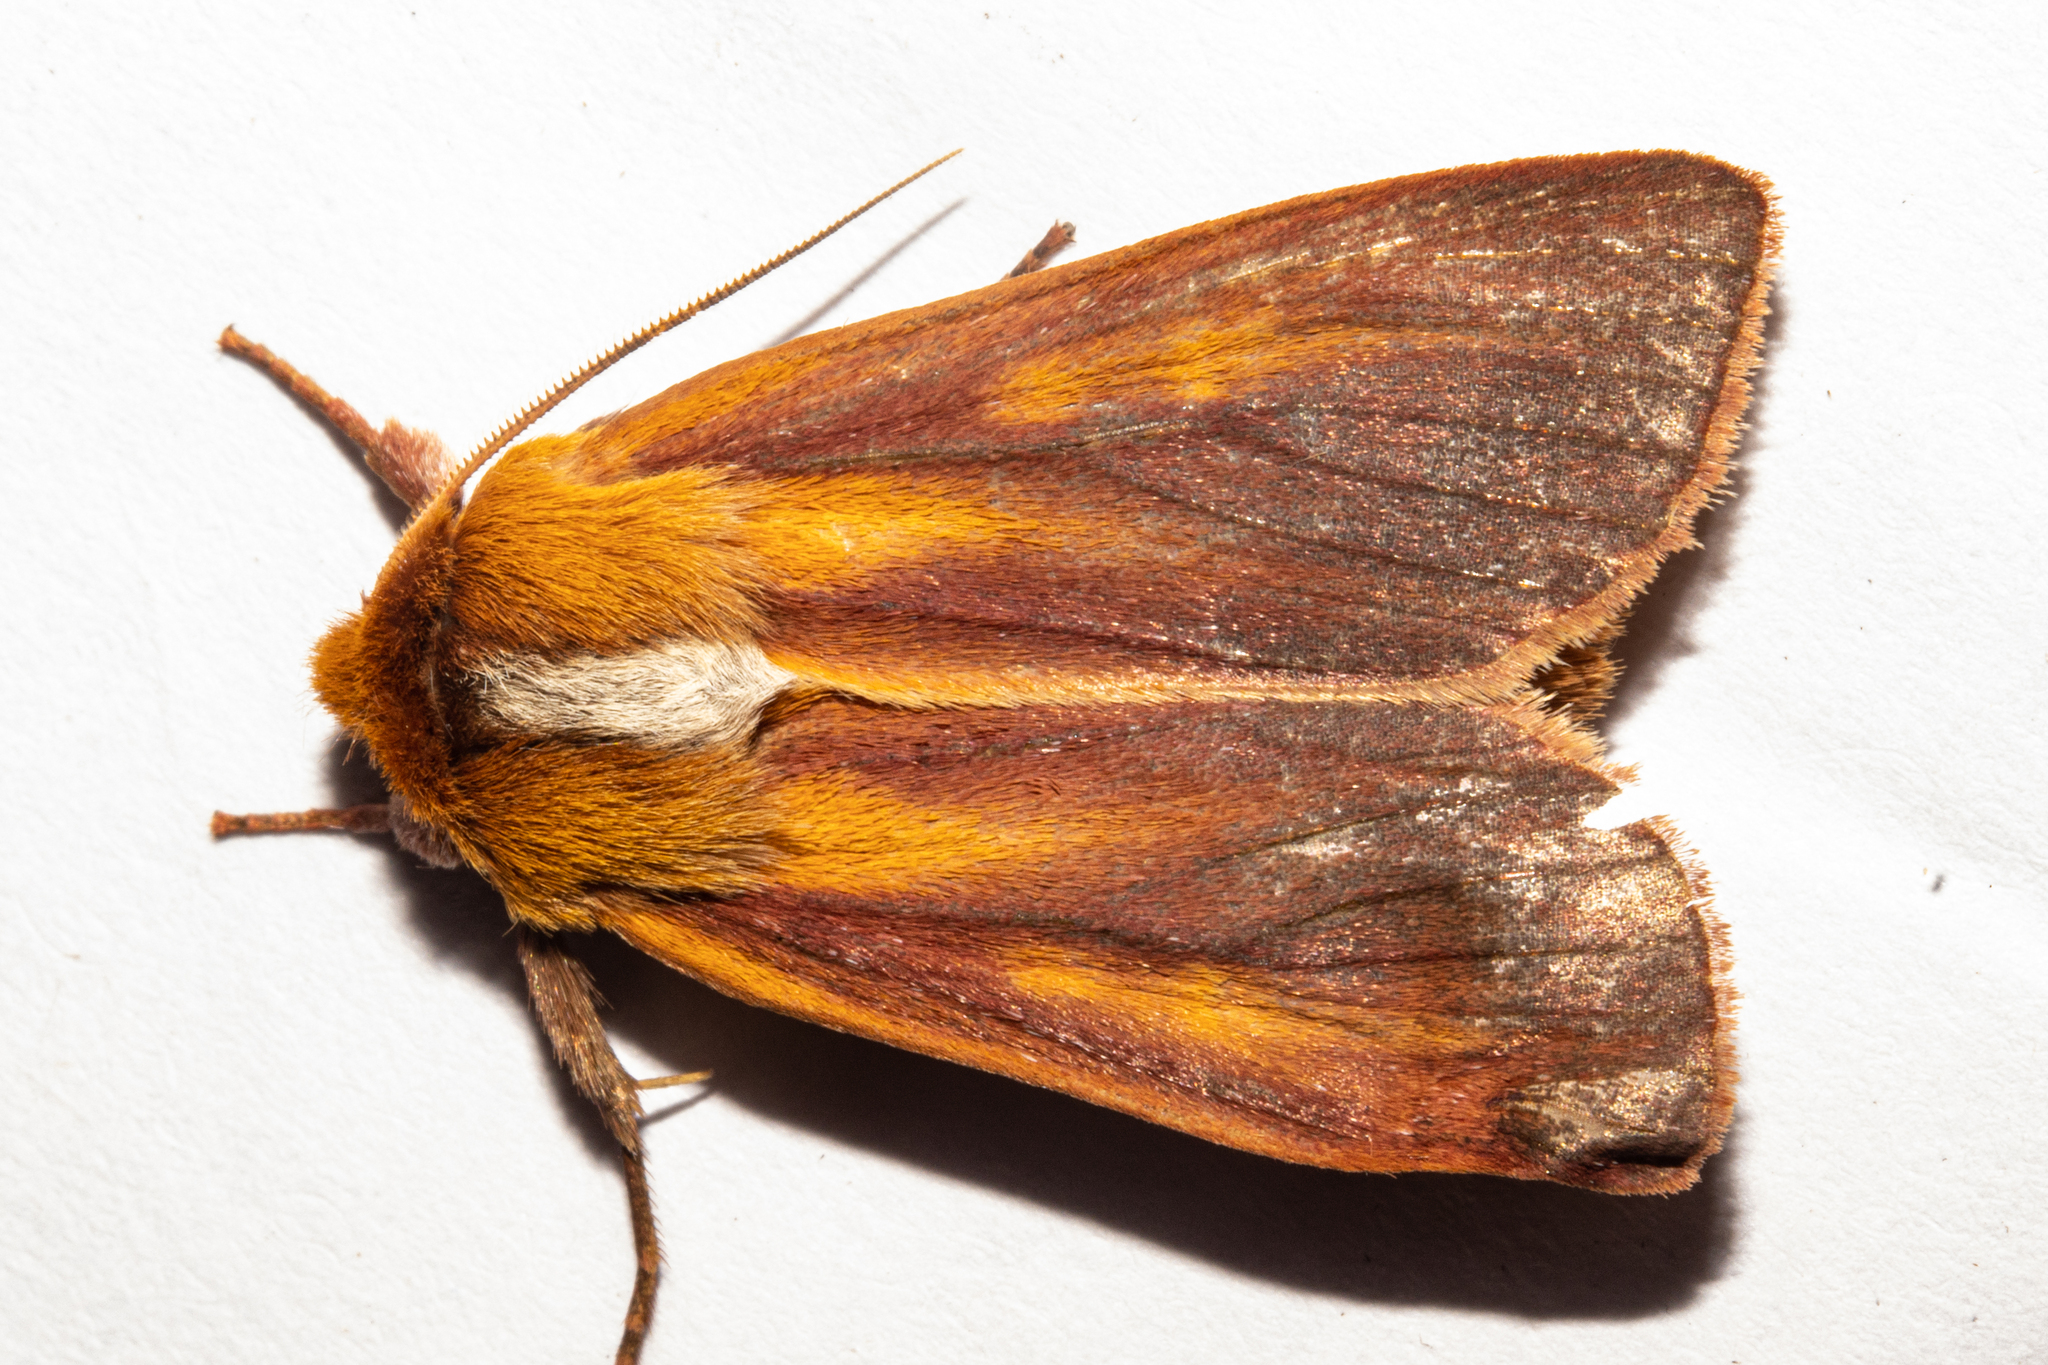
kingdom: Animalia
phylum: Arthropoda
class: Insecta
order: Lepidoptera
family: Noctuidae
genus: Ichneutica
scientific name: Ichneutica
